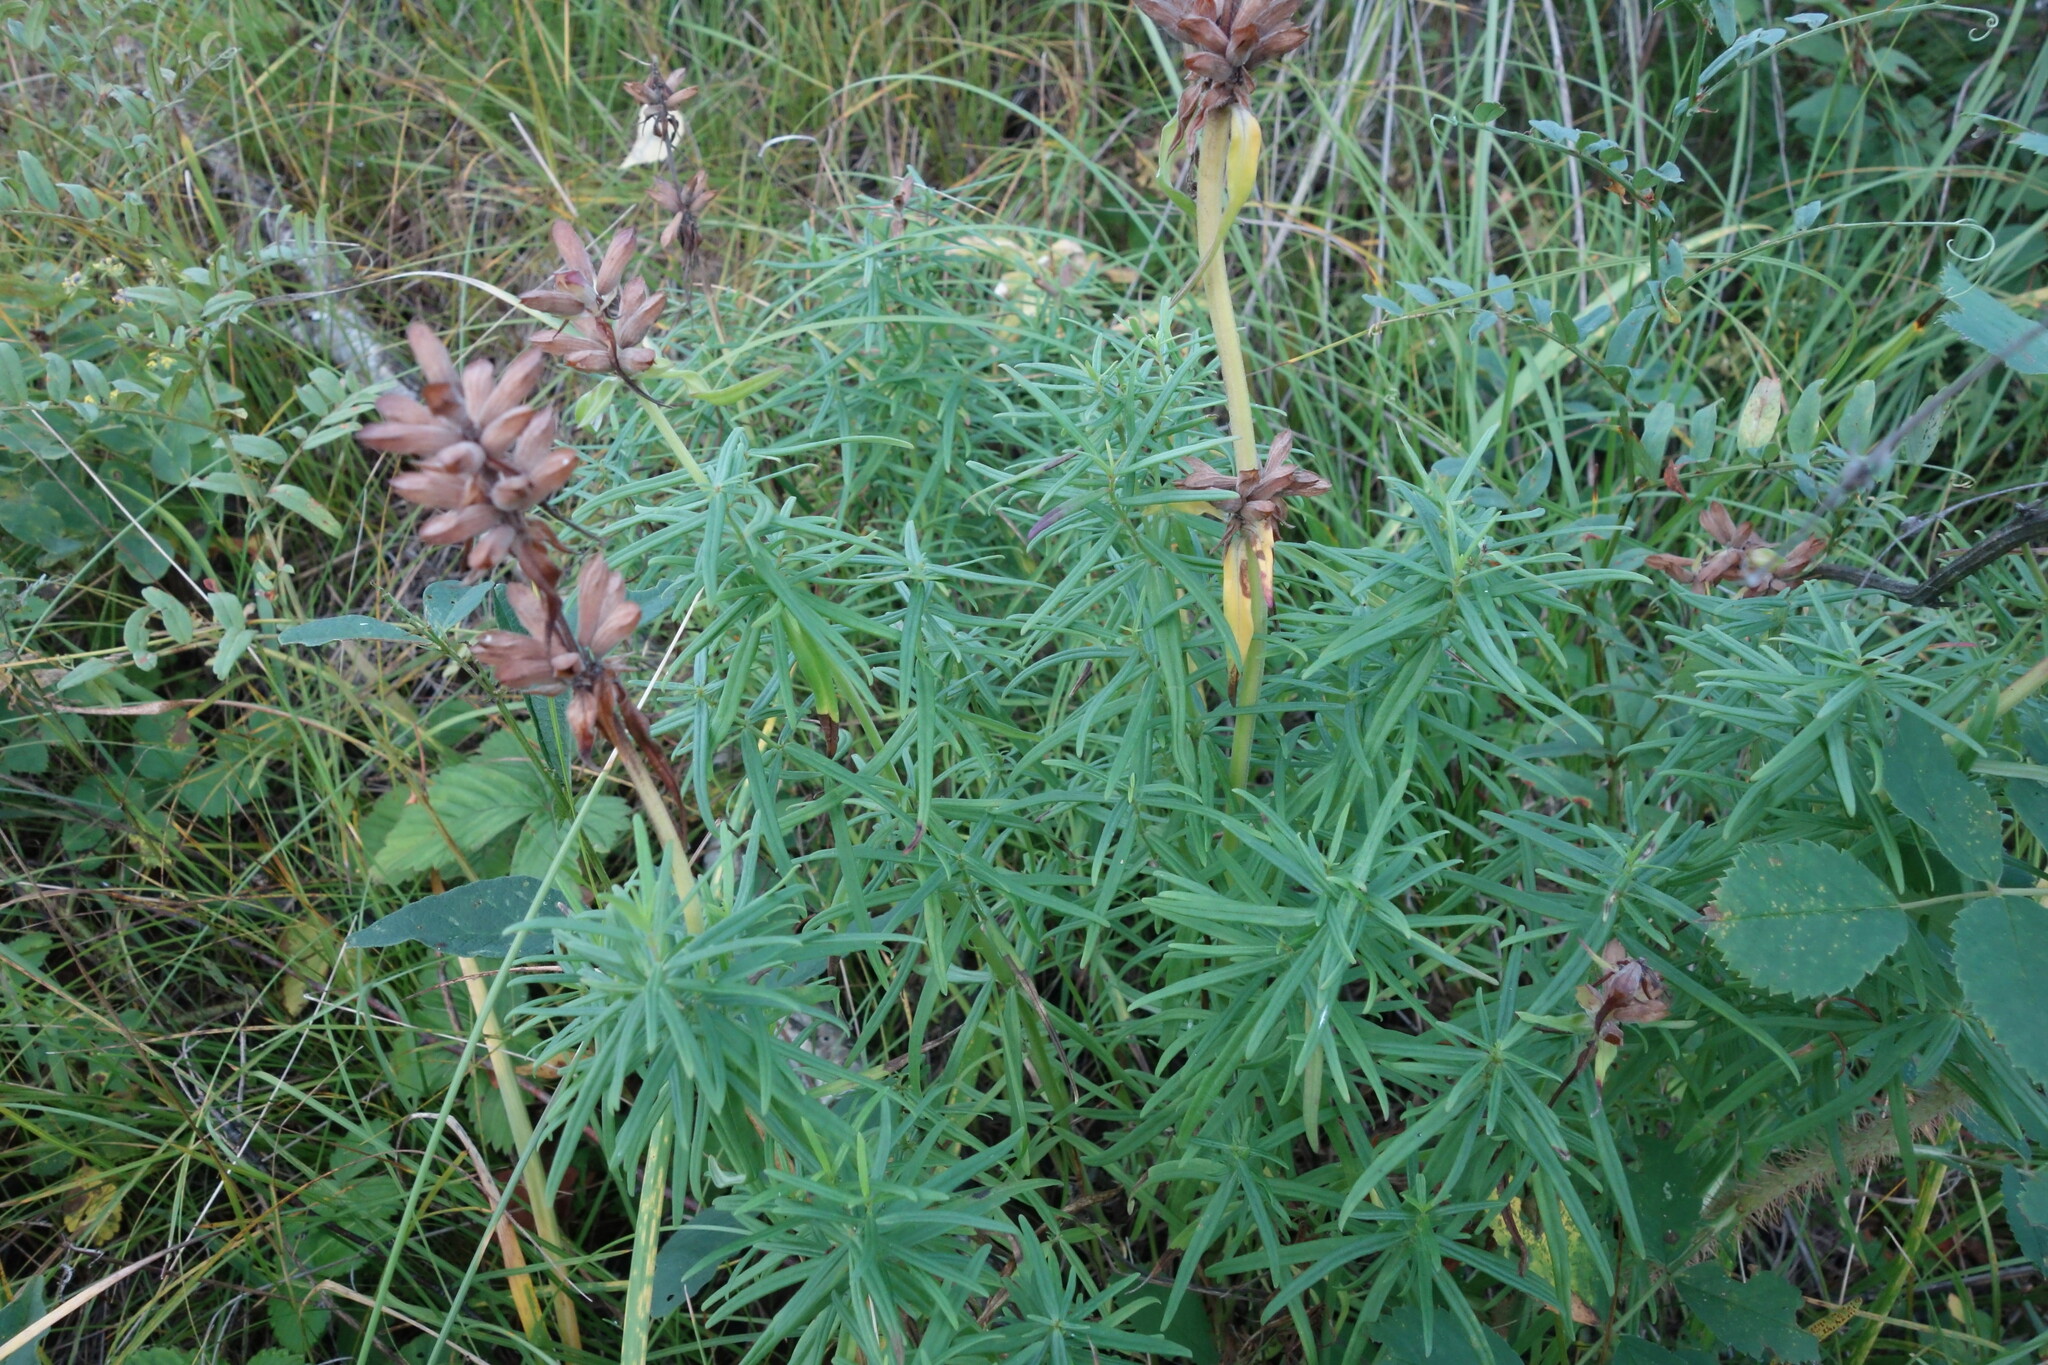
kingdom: Plantae
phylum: Tracheophyta
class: Magnoliopsida
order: Lamiales
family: Lamiaceae
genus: Dracocephalum
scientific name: Dracocephalum ruyschiana
